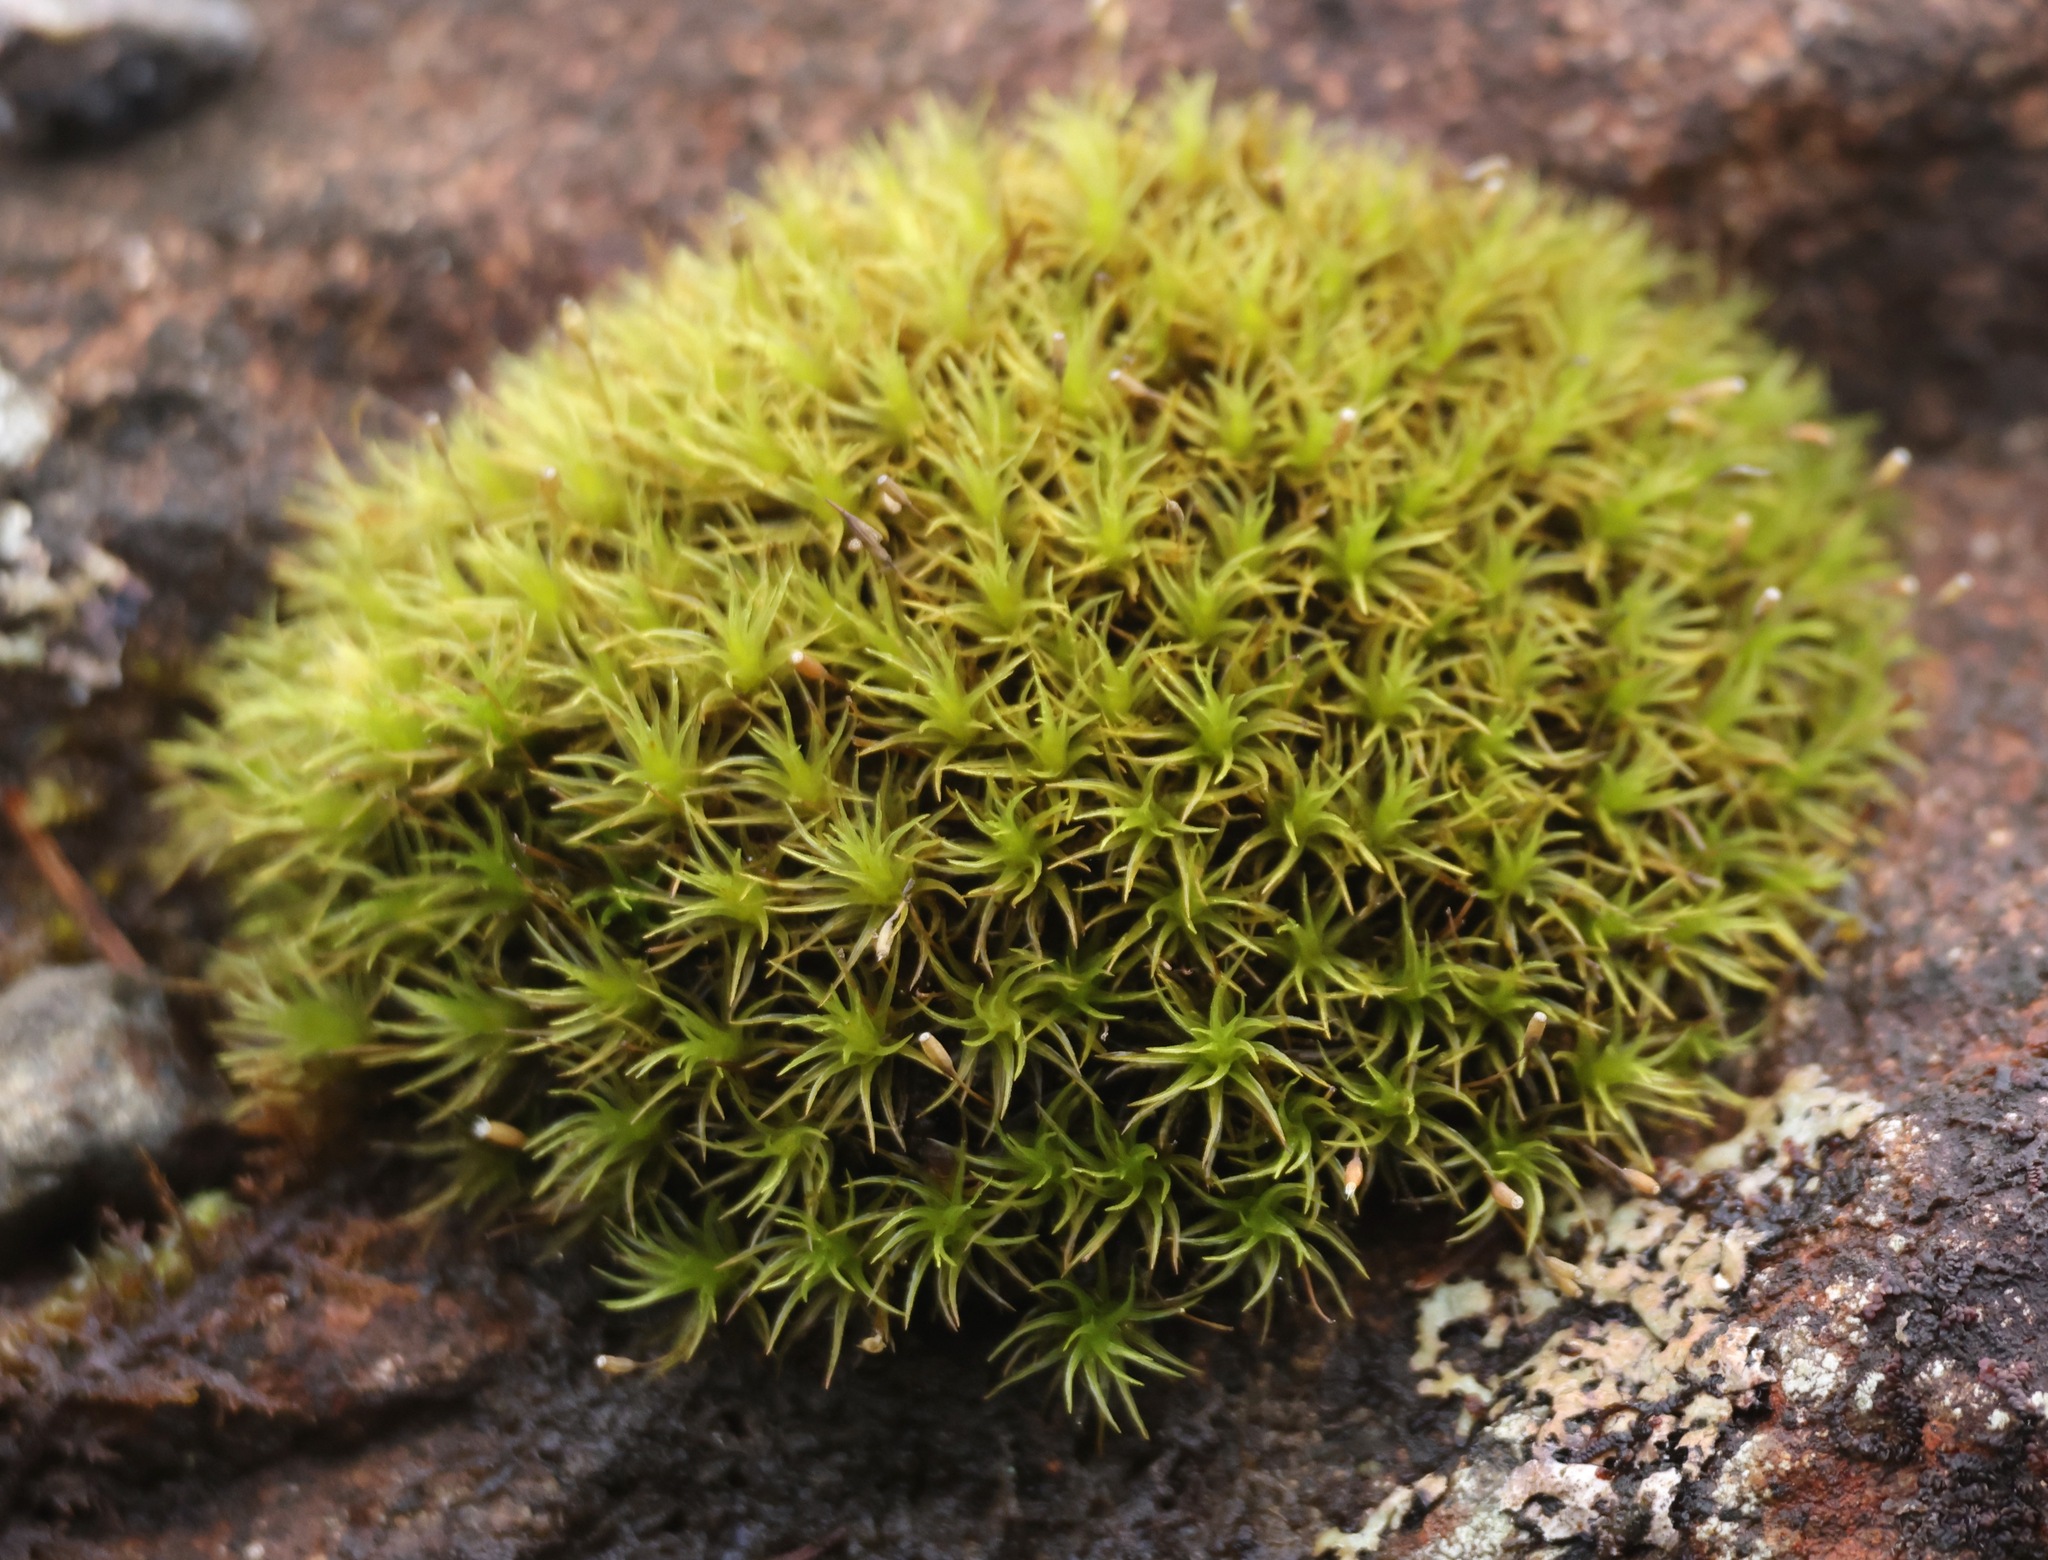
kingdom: Plantae
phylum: Bryophyta
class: Bryopsida
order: Grimmiales
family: Ptychomitriaceae
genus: Ptychomitrium
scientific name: Ptychomitrium polyphyllum
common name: Greater pincushion
